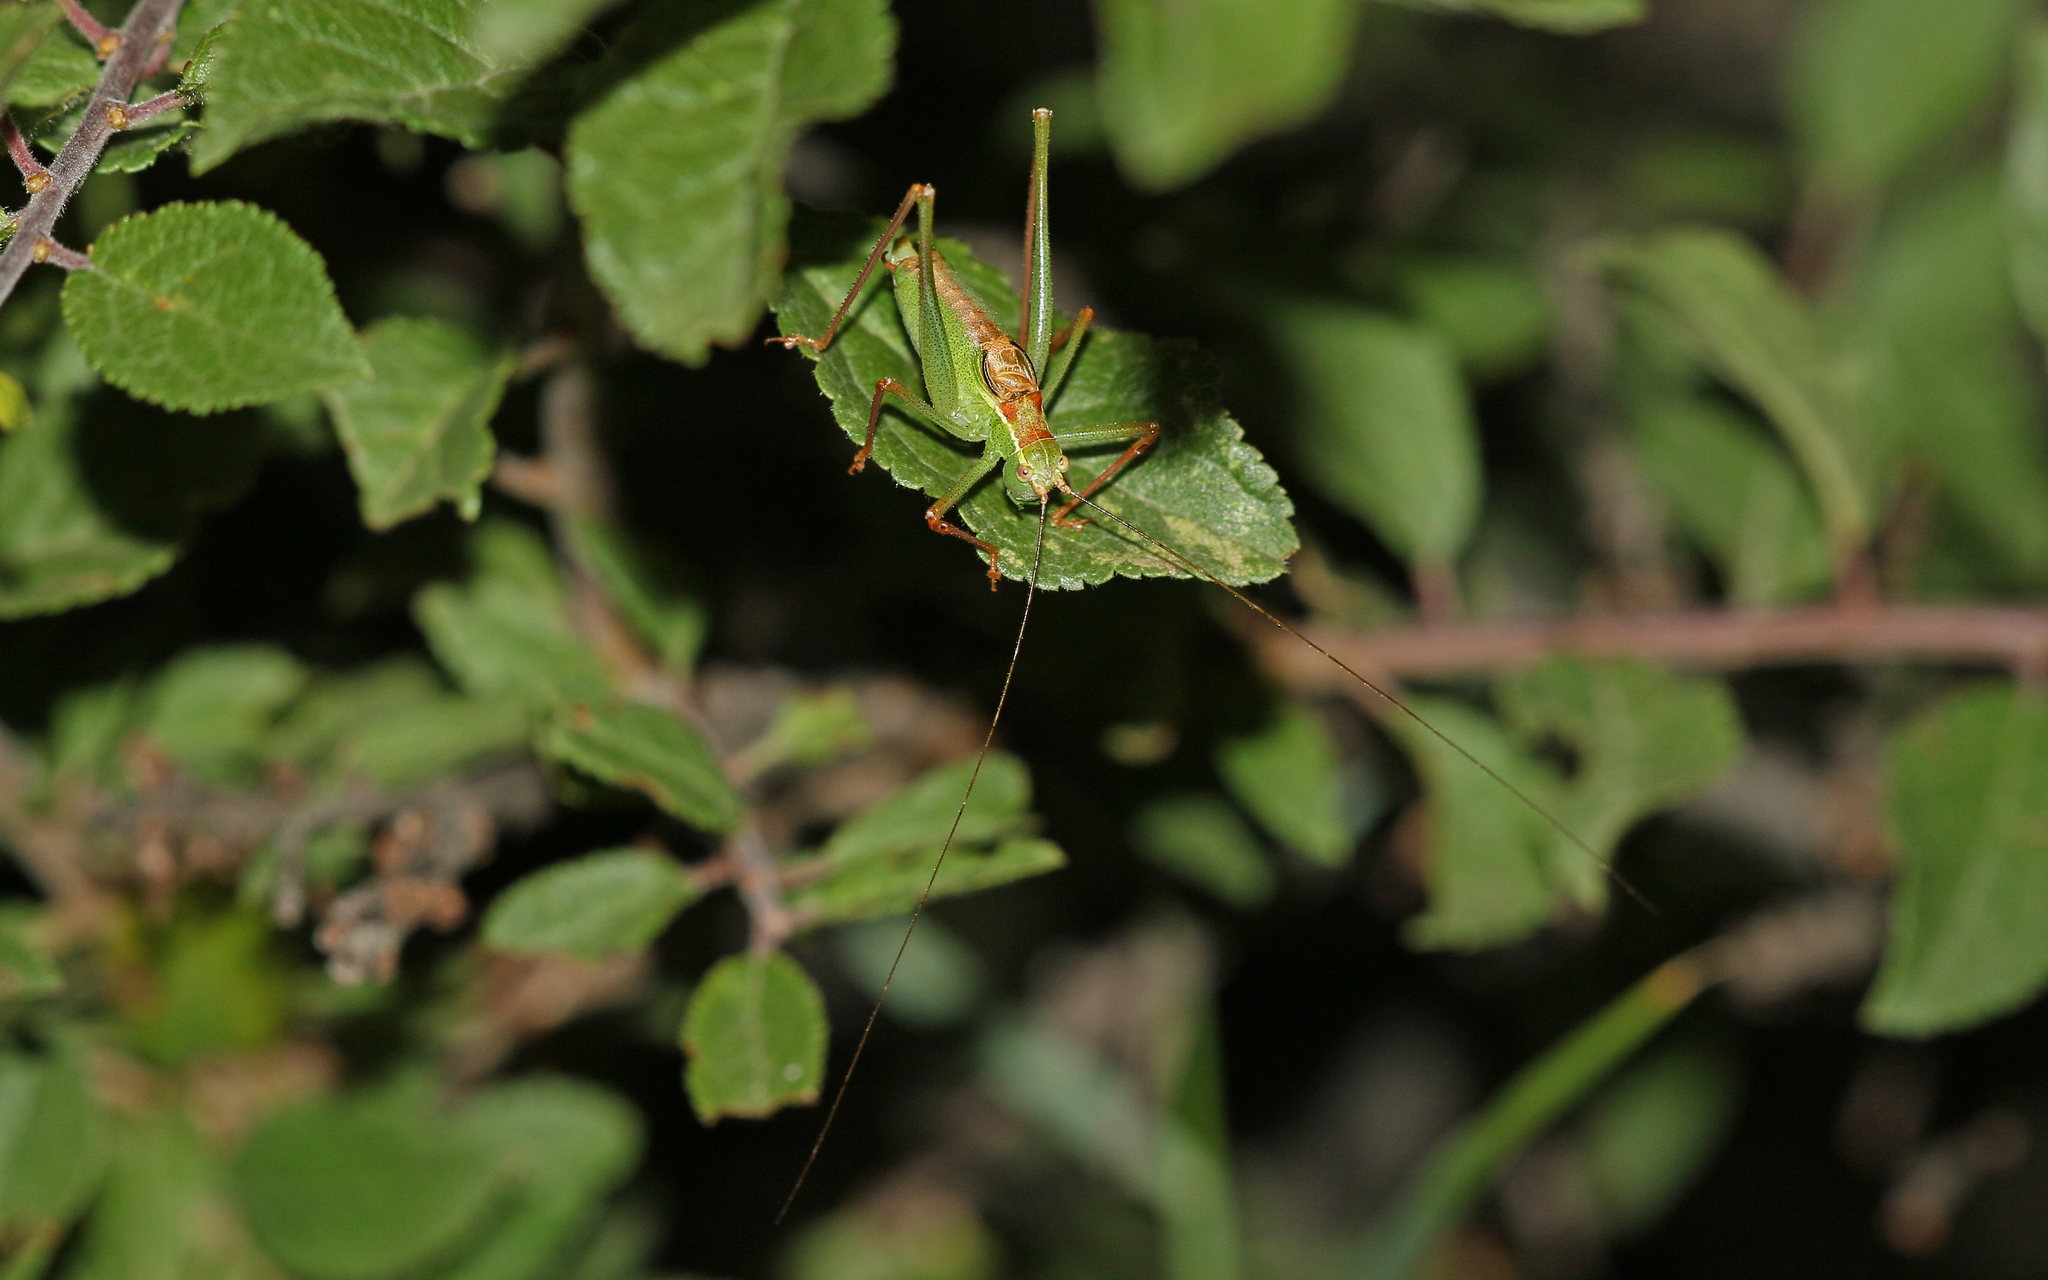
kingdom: Animalia
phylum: Arthropoda
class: Insecta
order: Orthoptera
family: Tettigoniidae
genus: Leptophyes
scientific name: Leptophyes punctatissima
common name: Speckled bush-cricket
